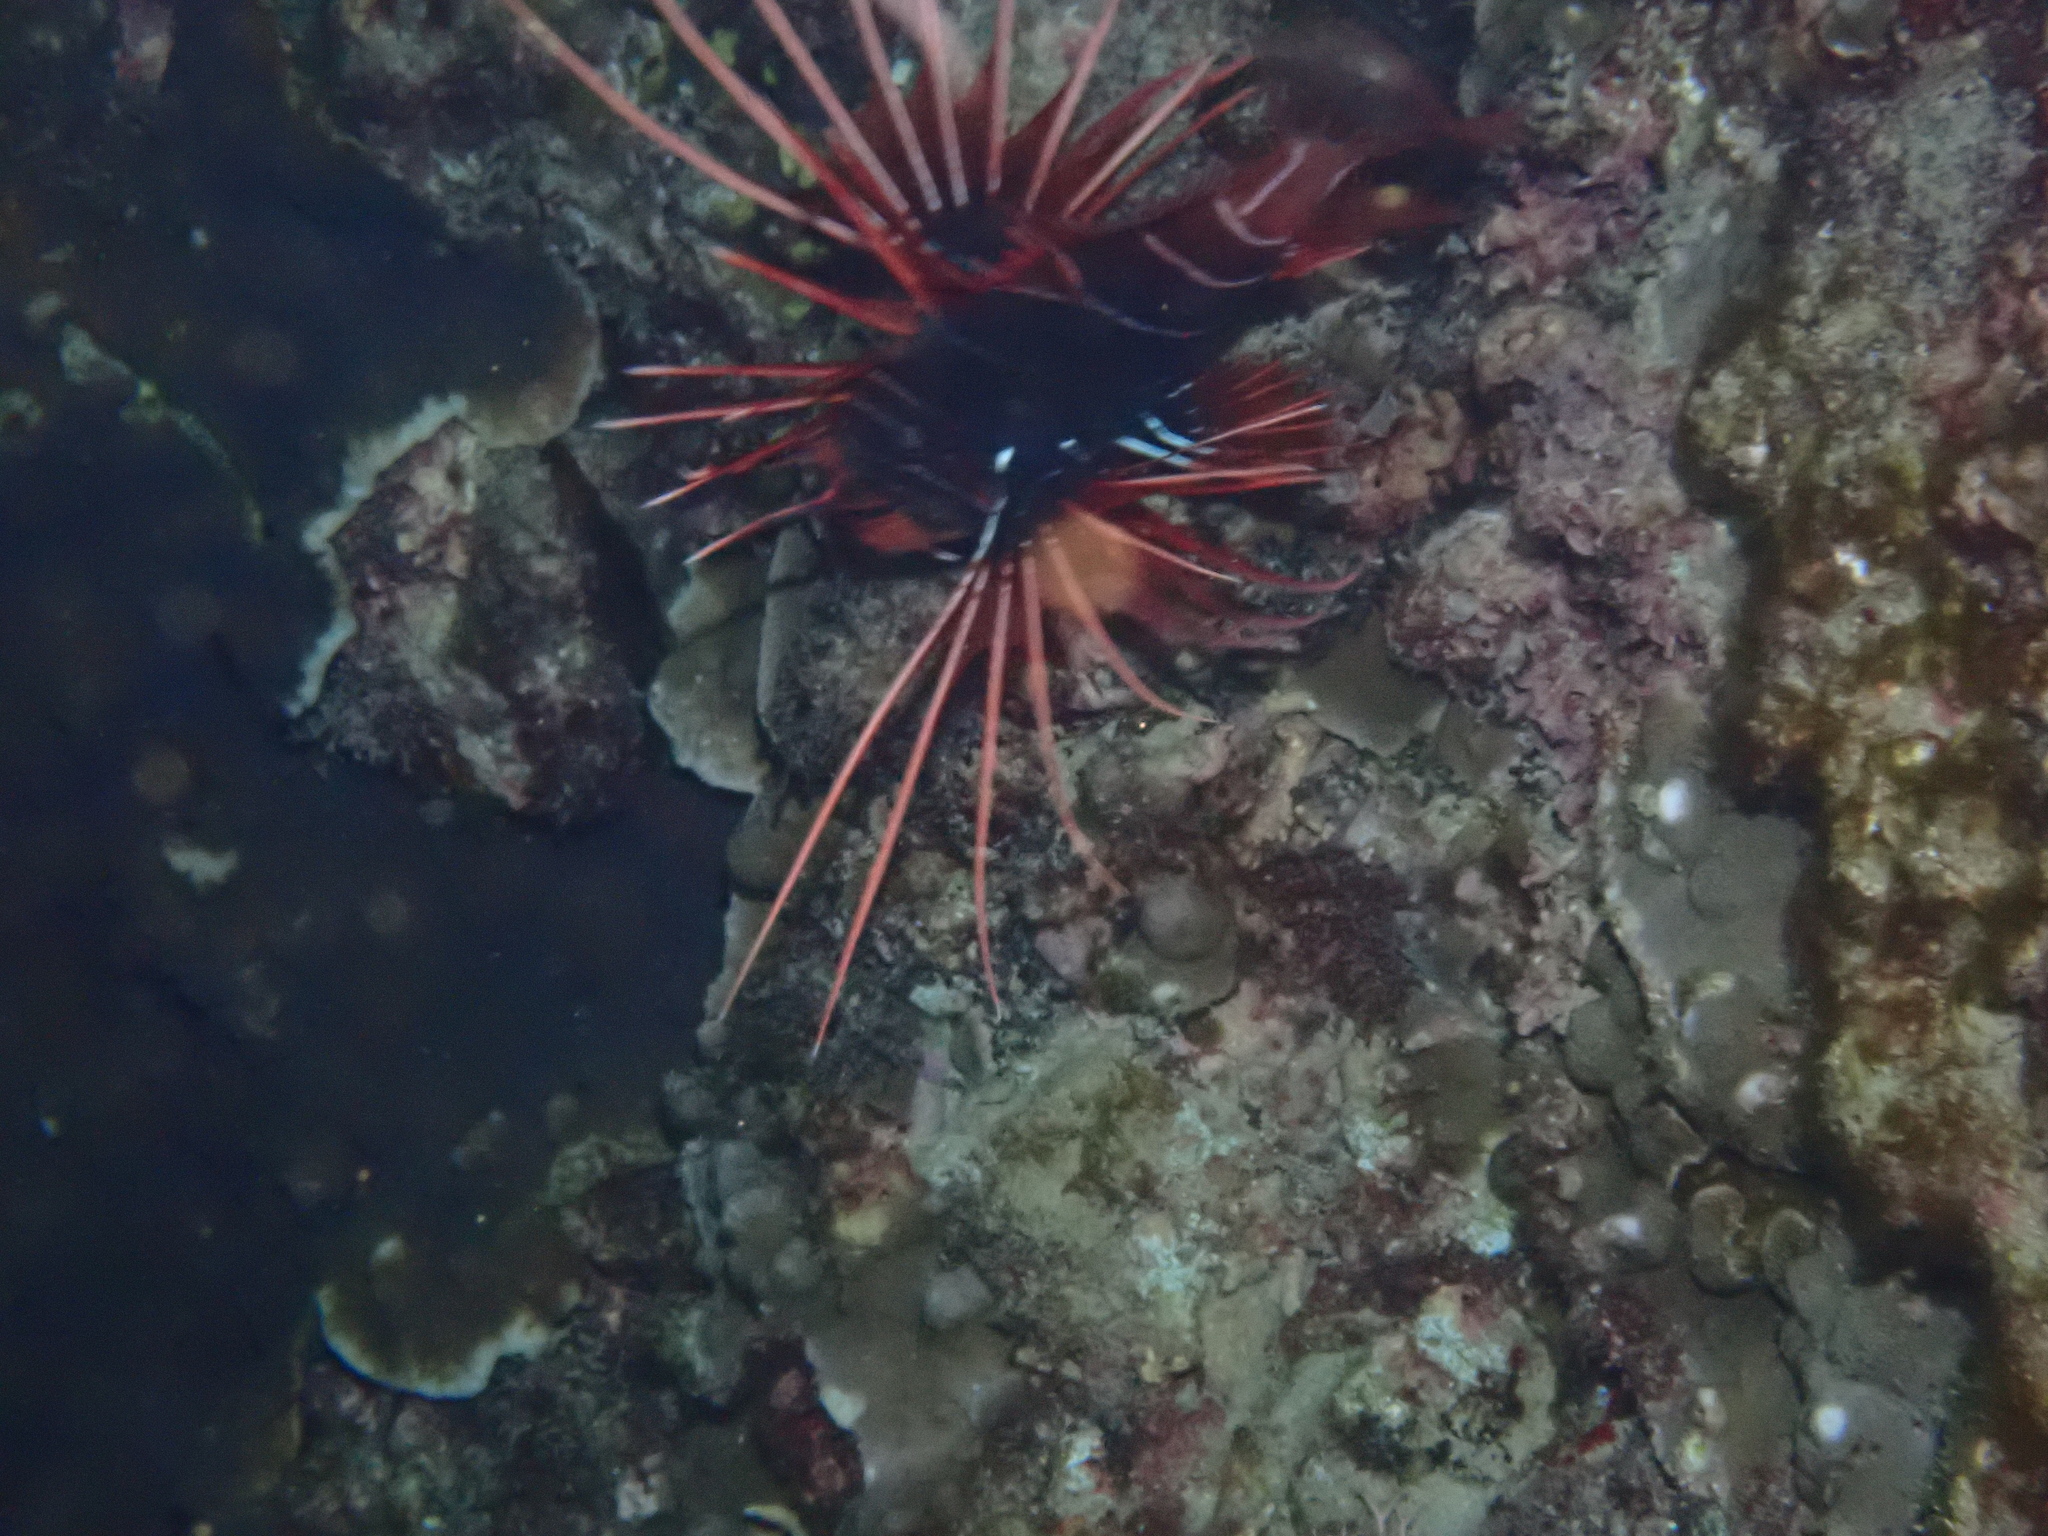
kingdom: Animalia
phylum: Chordata
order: Scorpaeniformes
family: Scorpaenidae
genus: Pterois
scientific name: Pterois radiata
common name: Radial firefish
